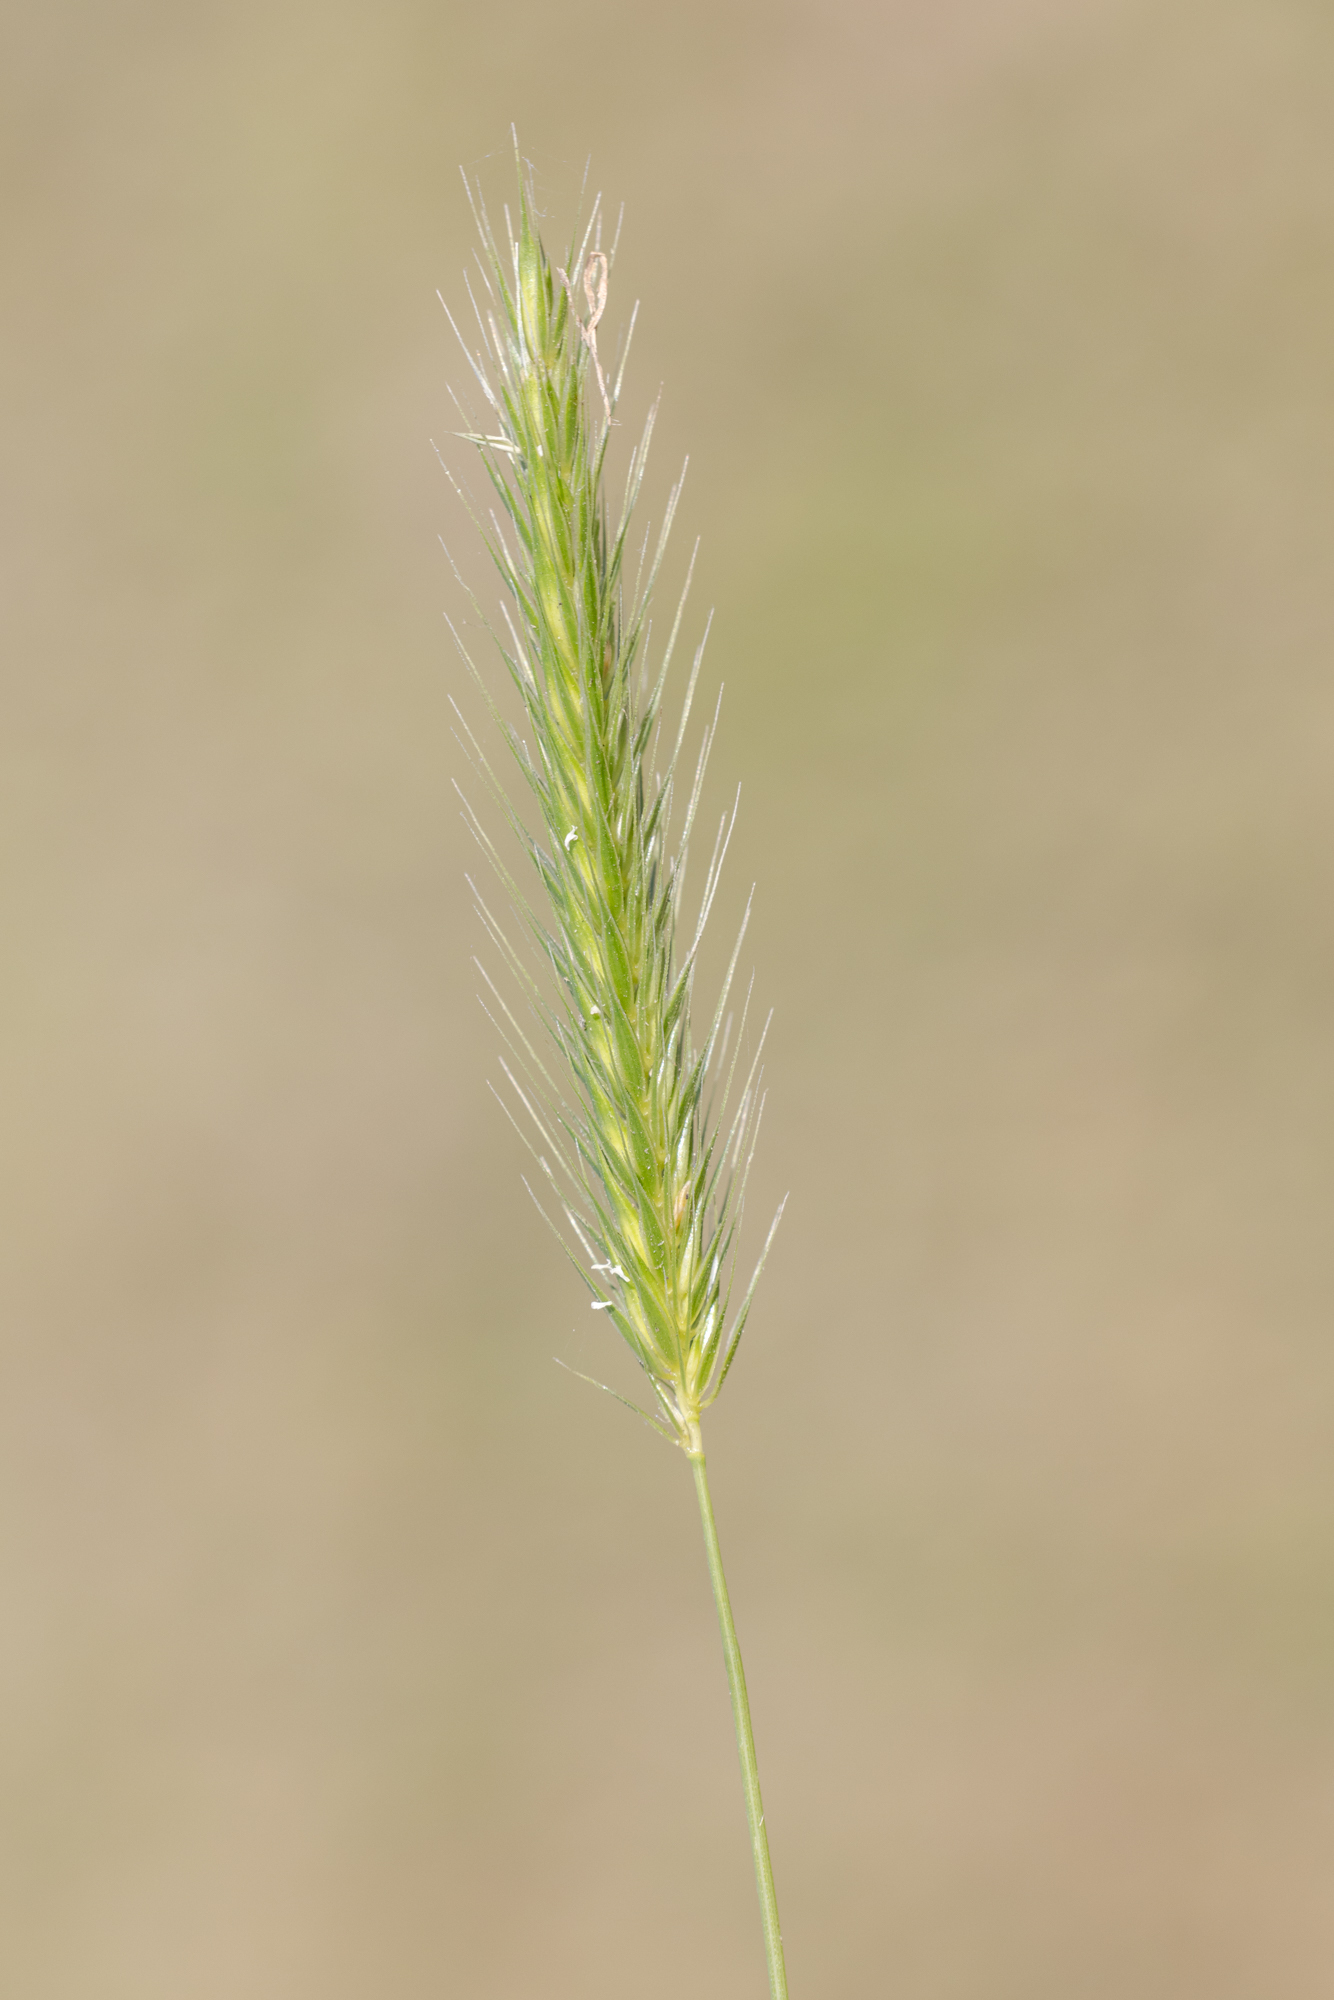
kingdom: Plantae
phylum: Tracheophyta
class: Liliopsida
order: Poales
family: Poaceae
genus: Hordeum
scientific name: Hordeum pusillum
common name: Little barley
